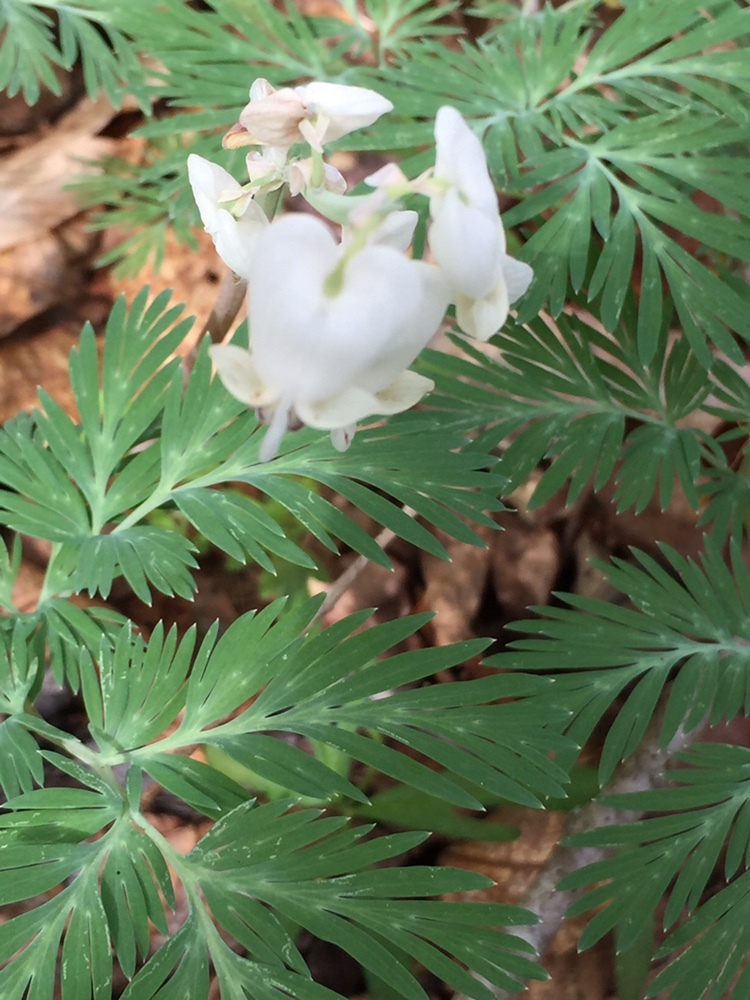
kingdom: Plantae
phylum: Tracheophyta
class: Magnoliopsida
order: Ranunculales
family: Papaveraceae
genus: Dicentra
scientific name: Dicentra canadensis
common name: Squirrel-corn
